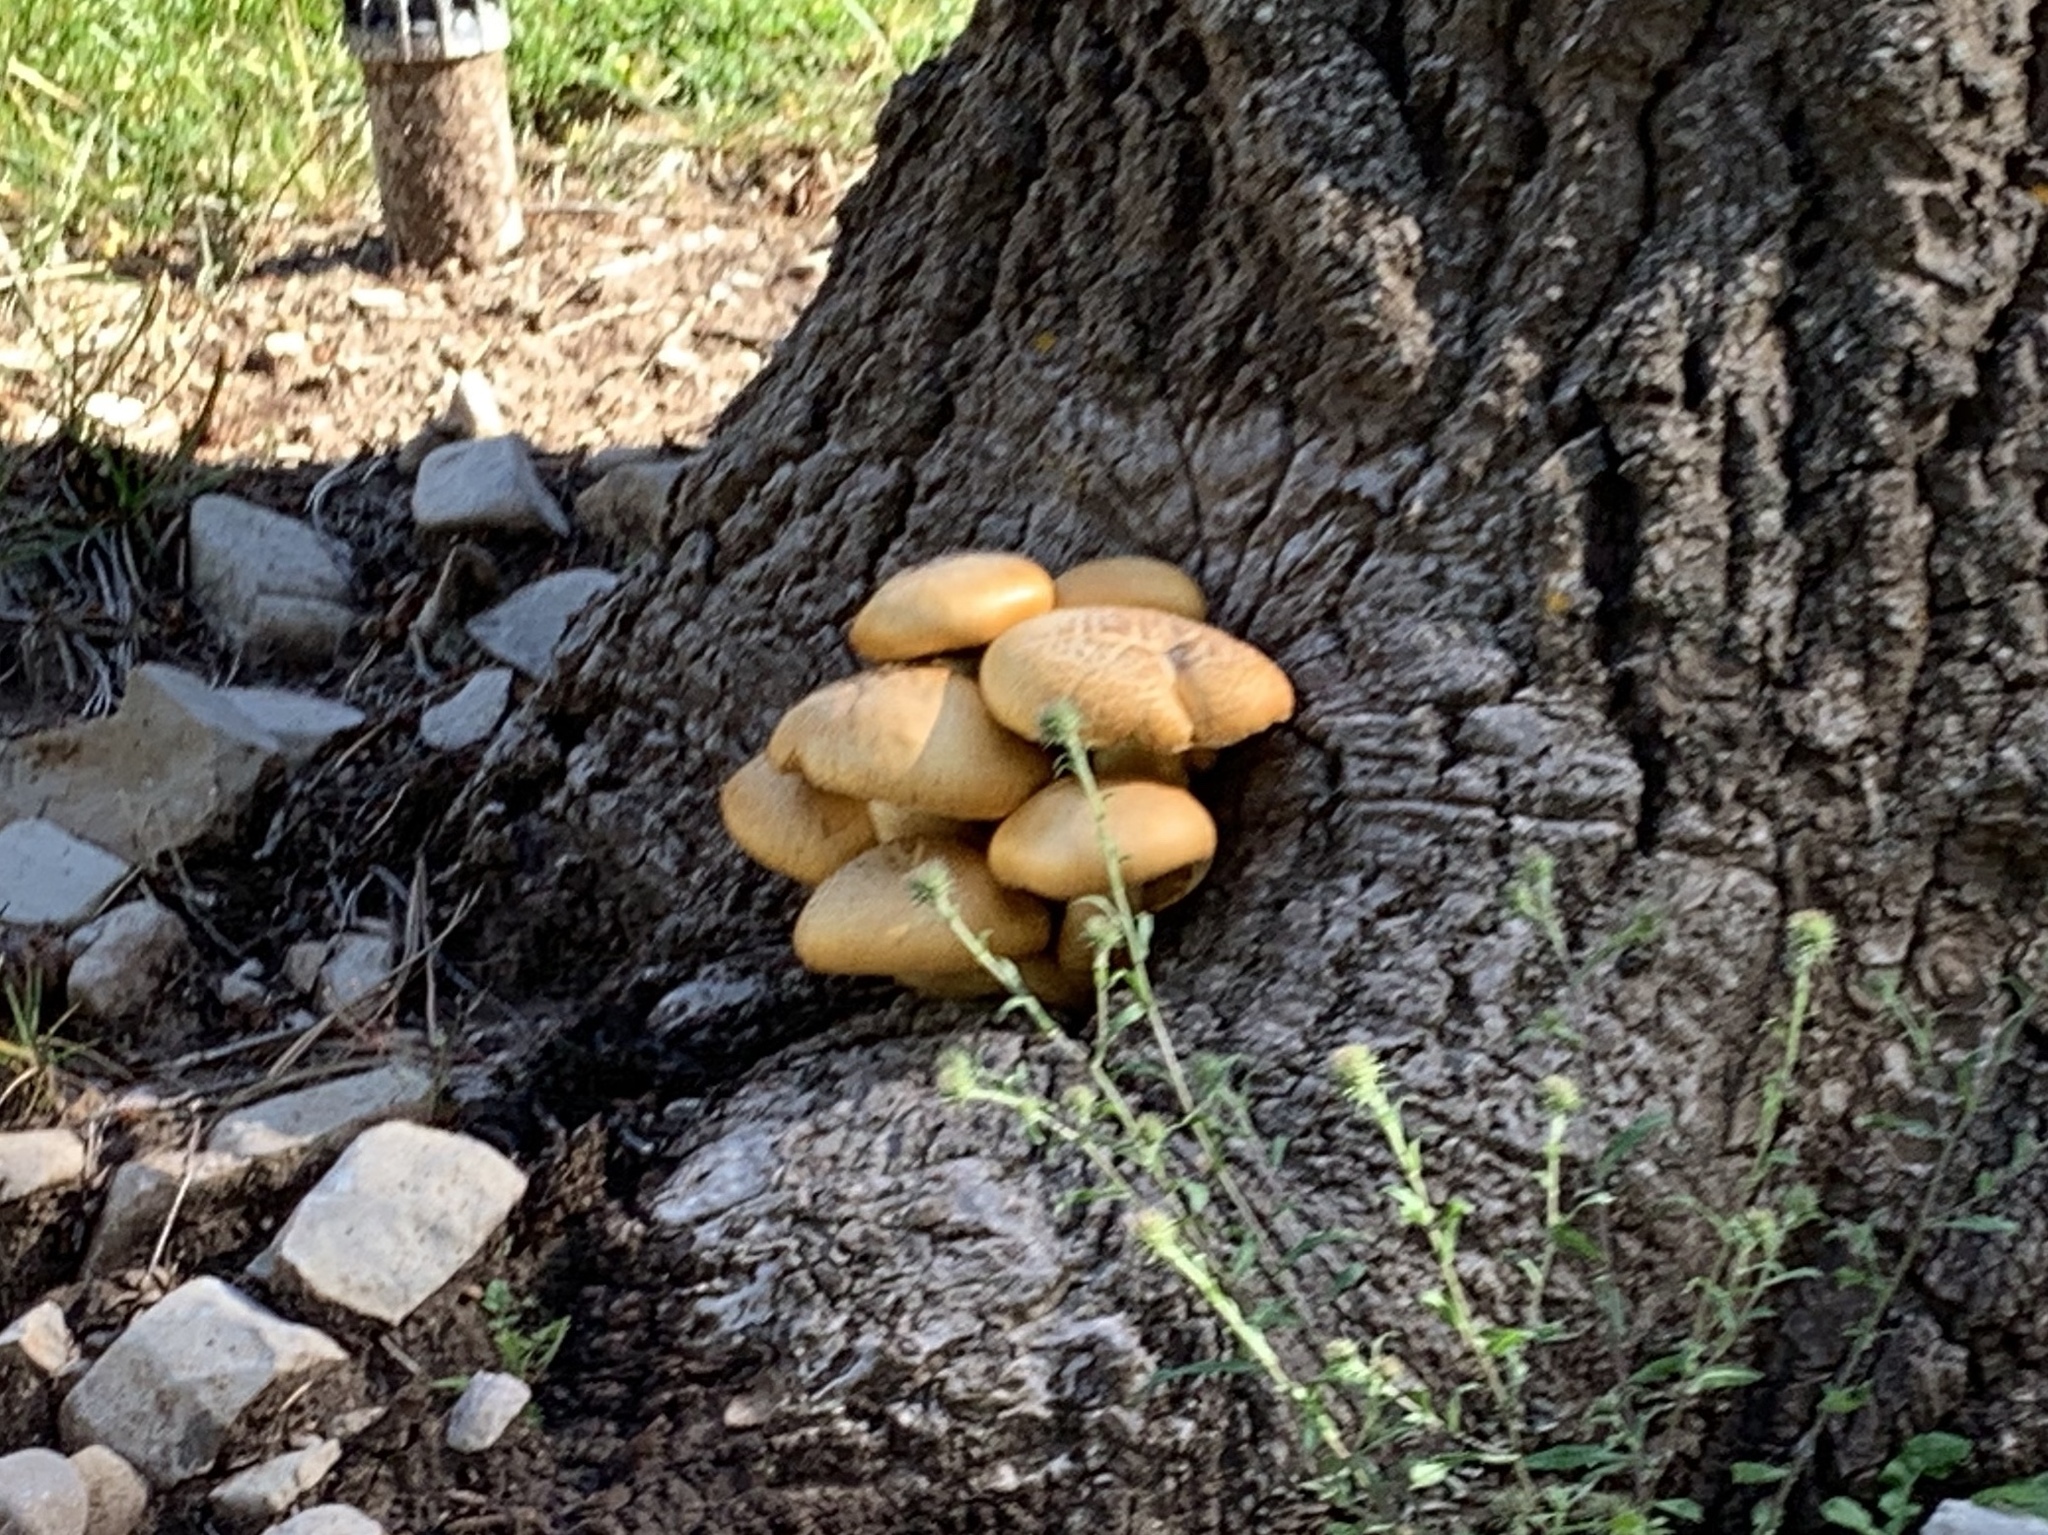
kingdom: Fungi
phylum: Basidiomycota
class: Agaricomycetes
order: Agaricales
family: Hymenogastraceae
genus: Gymnopilus
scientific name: Gymnopilus ventricosus
